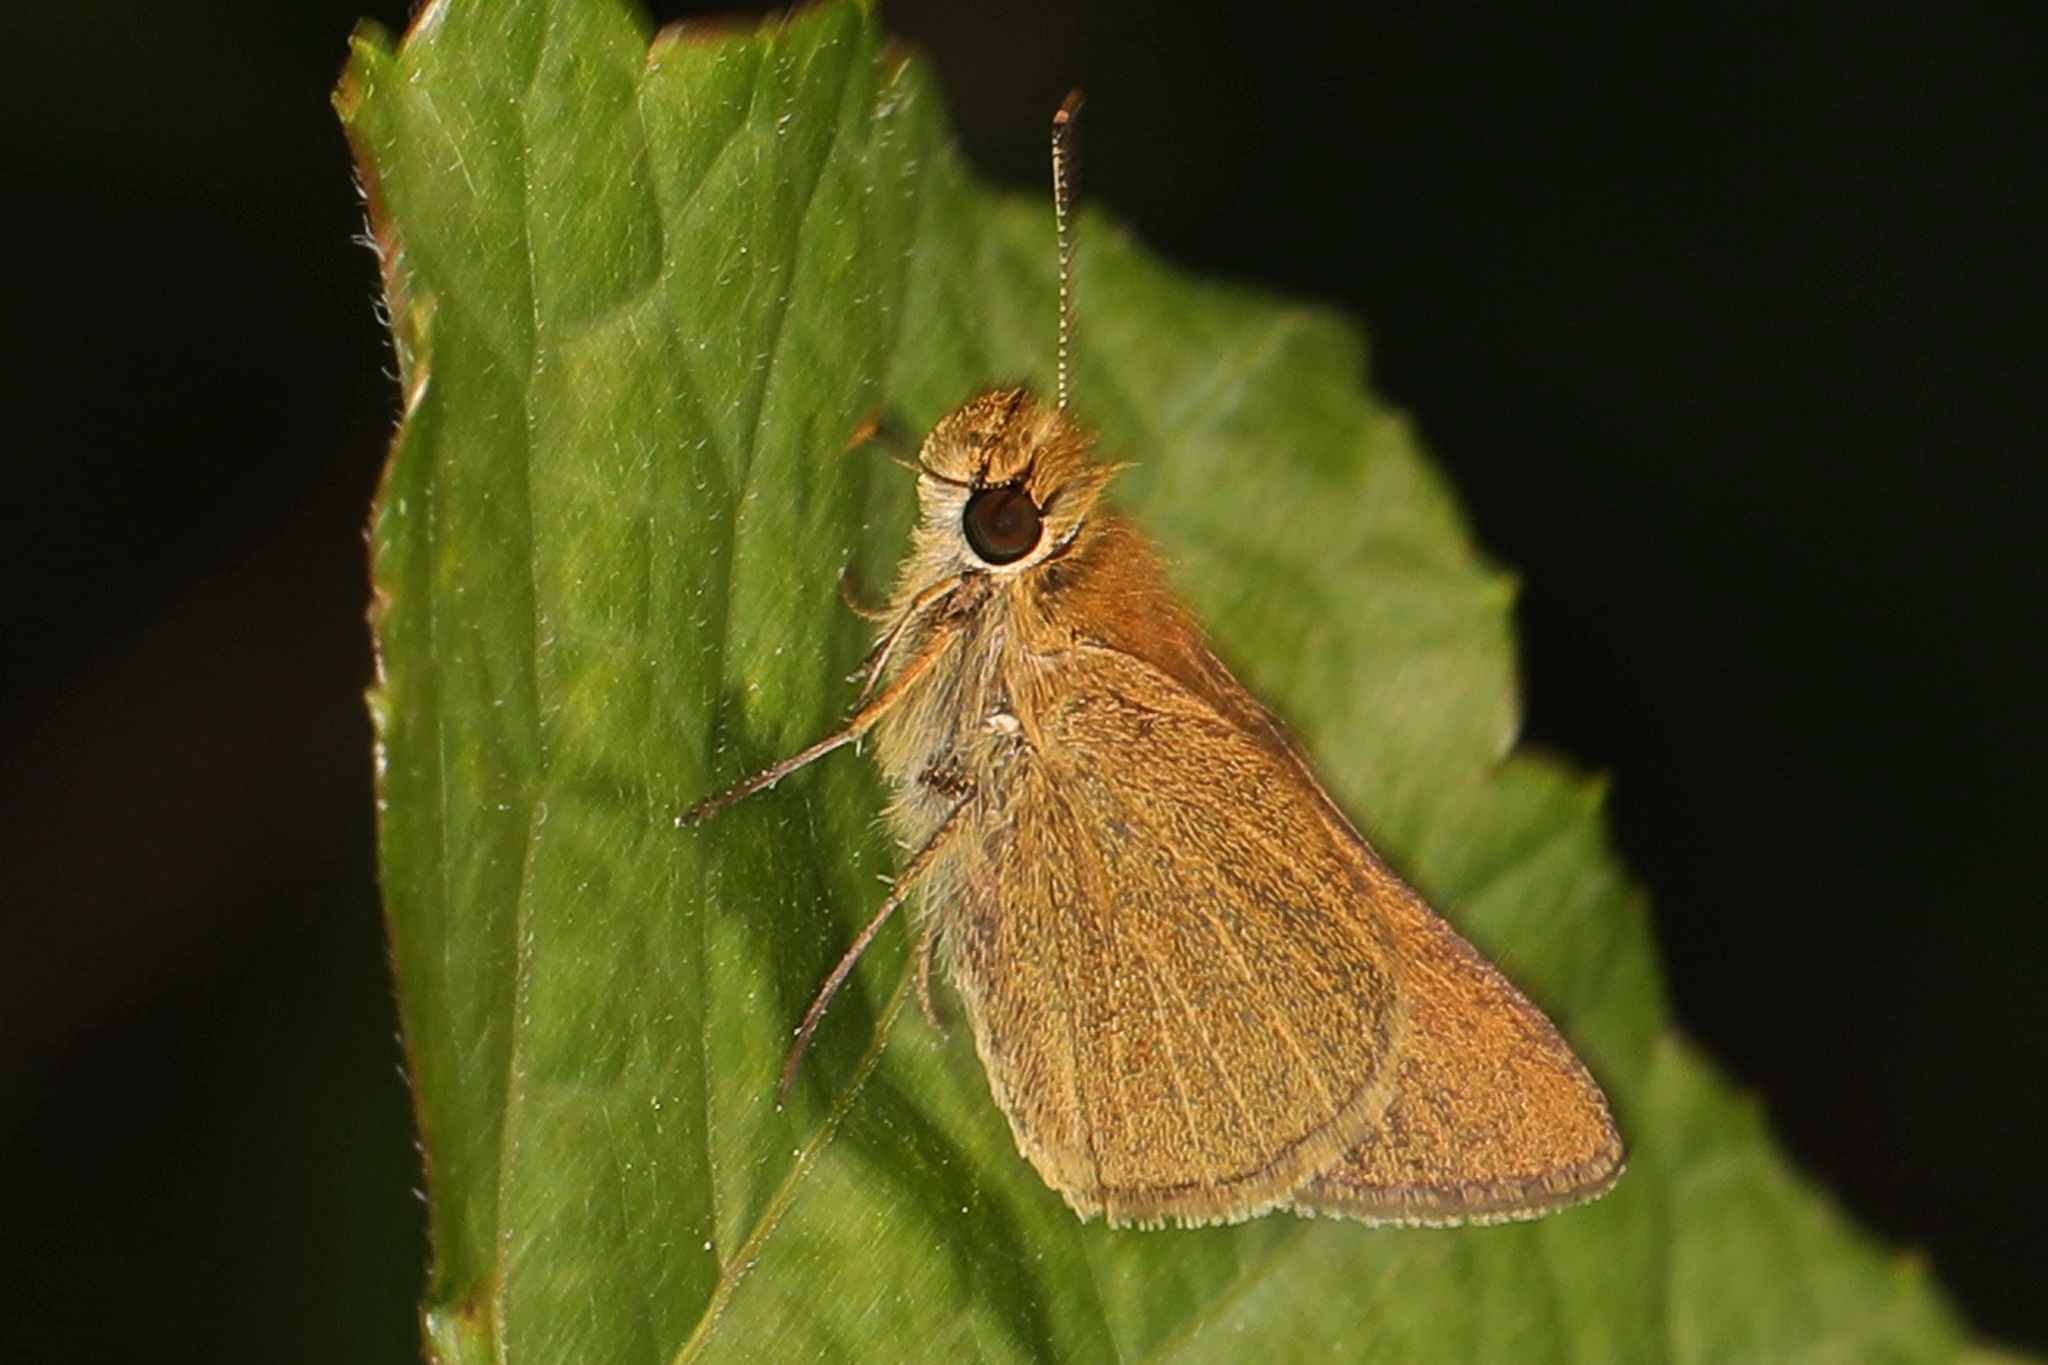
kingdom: Animalia
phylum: Arthropoda
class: Insecta
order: Lepidoptera
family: Hesperiidae
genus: Nastra
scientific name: Nastra lherminier
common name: Swarthy skipper
